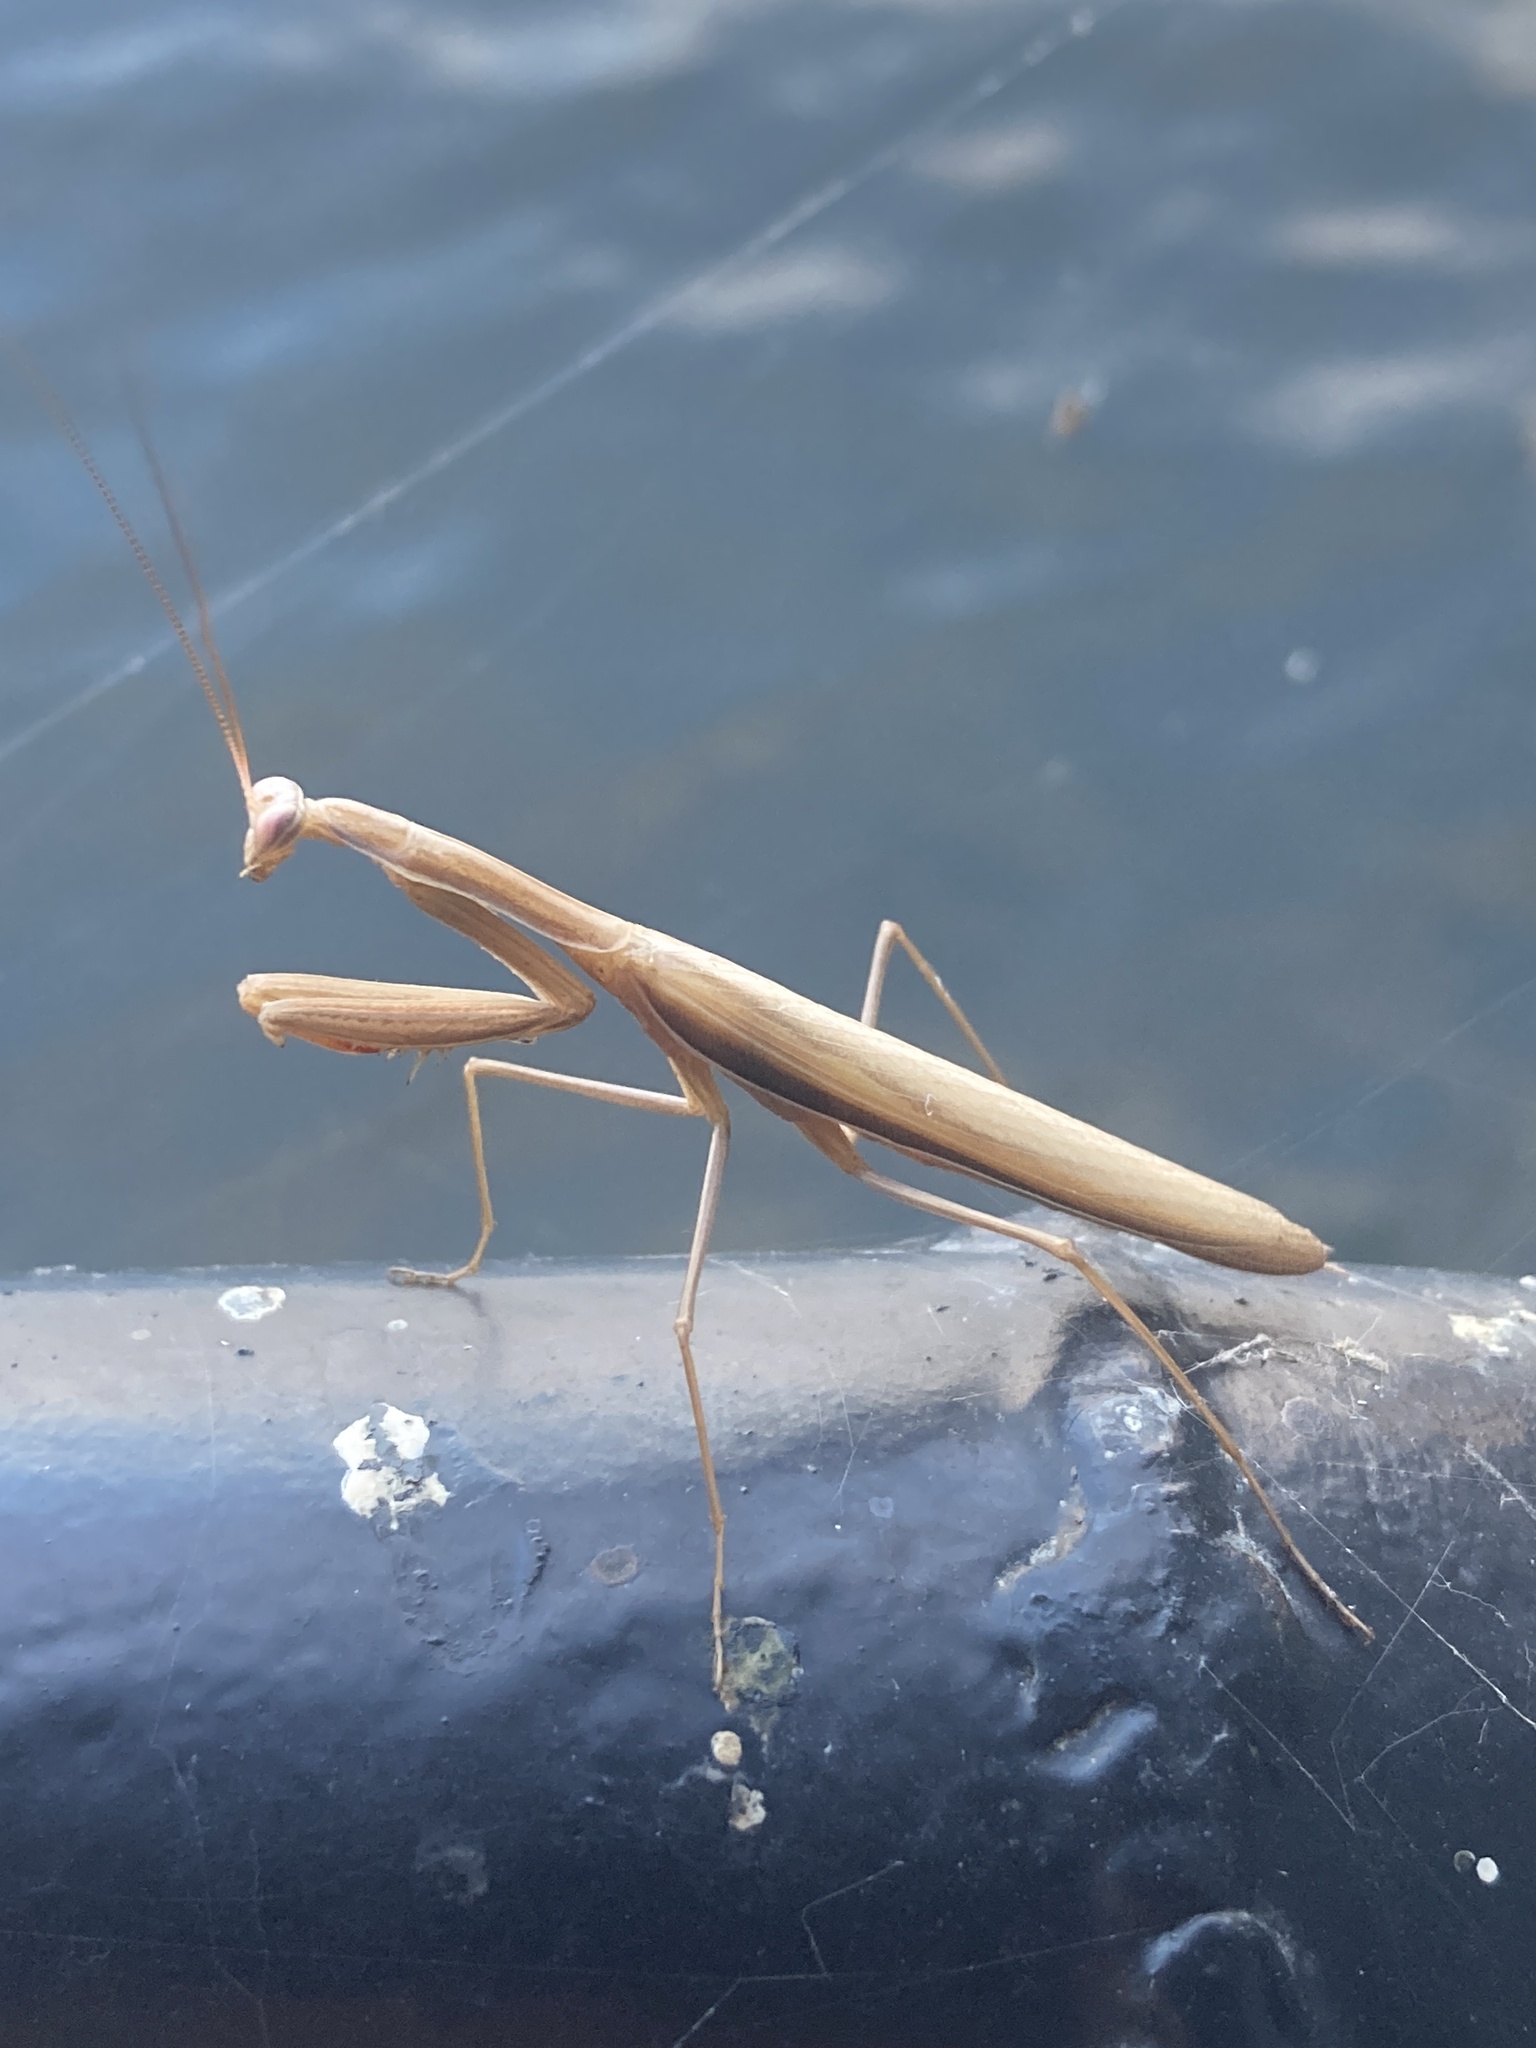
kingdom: Animalia
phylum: Arthropoda
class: Insecta
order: Mantodea
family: Mantidae
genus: Mantis
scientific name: Mantis religiosa
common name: Praying mantis
